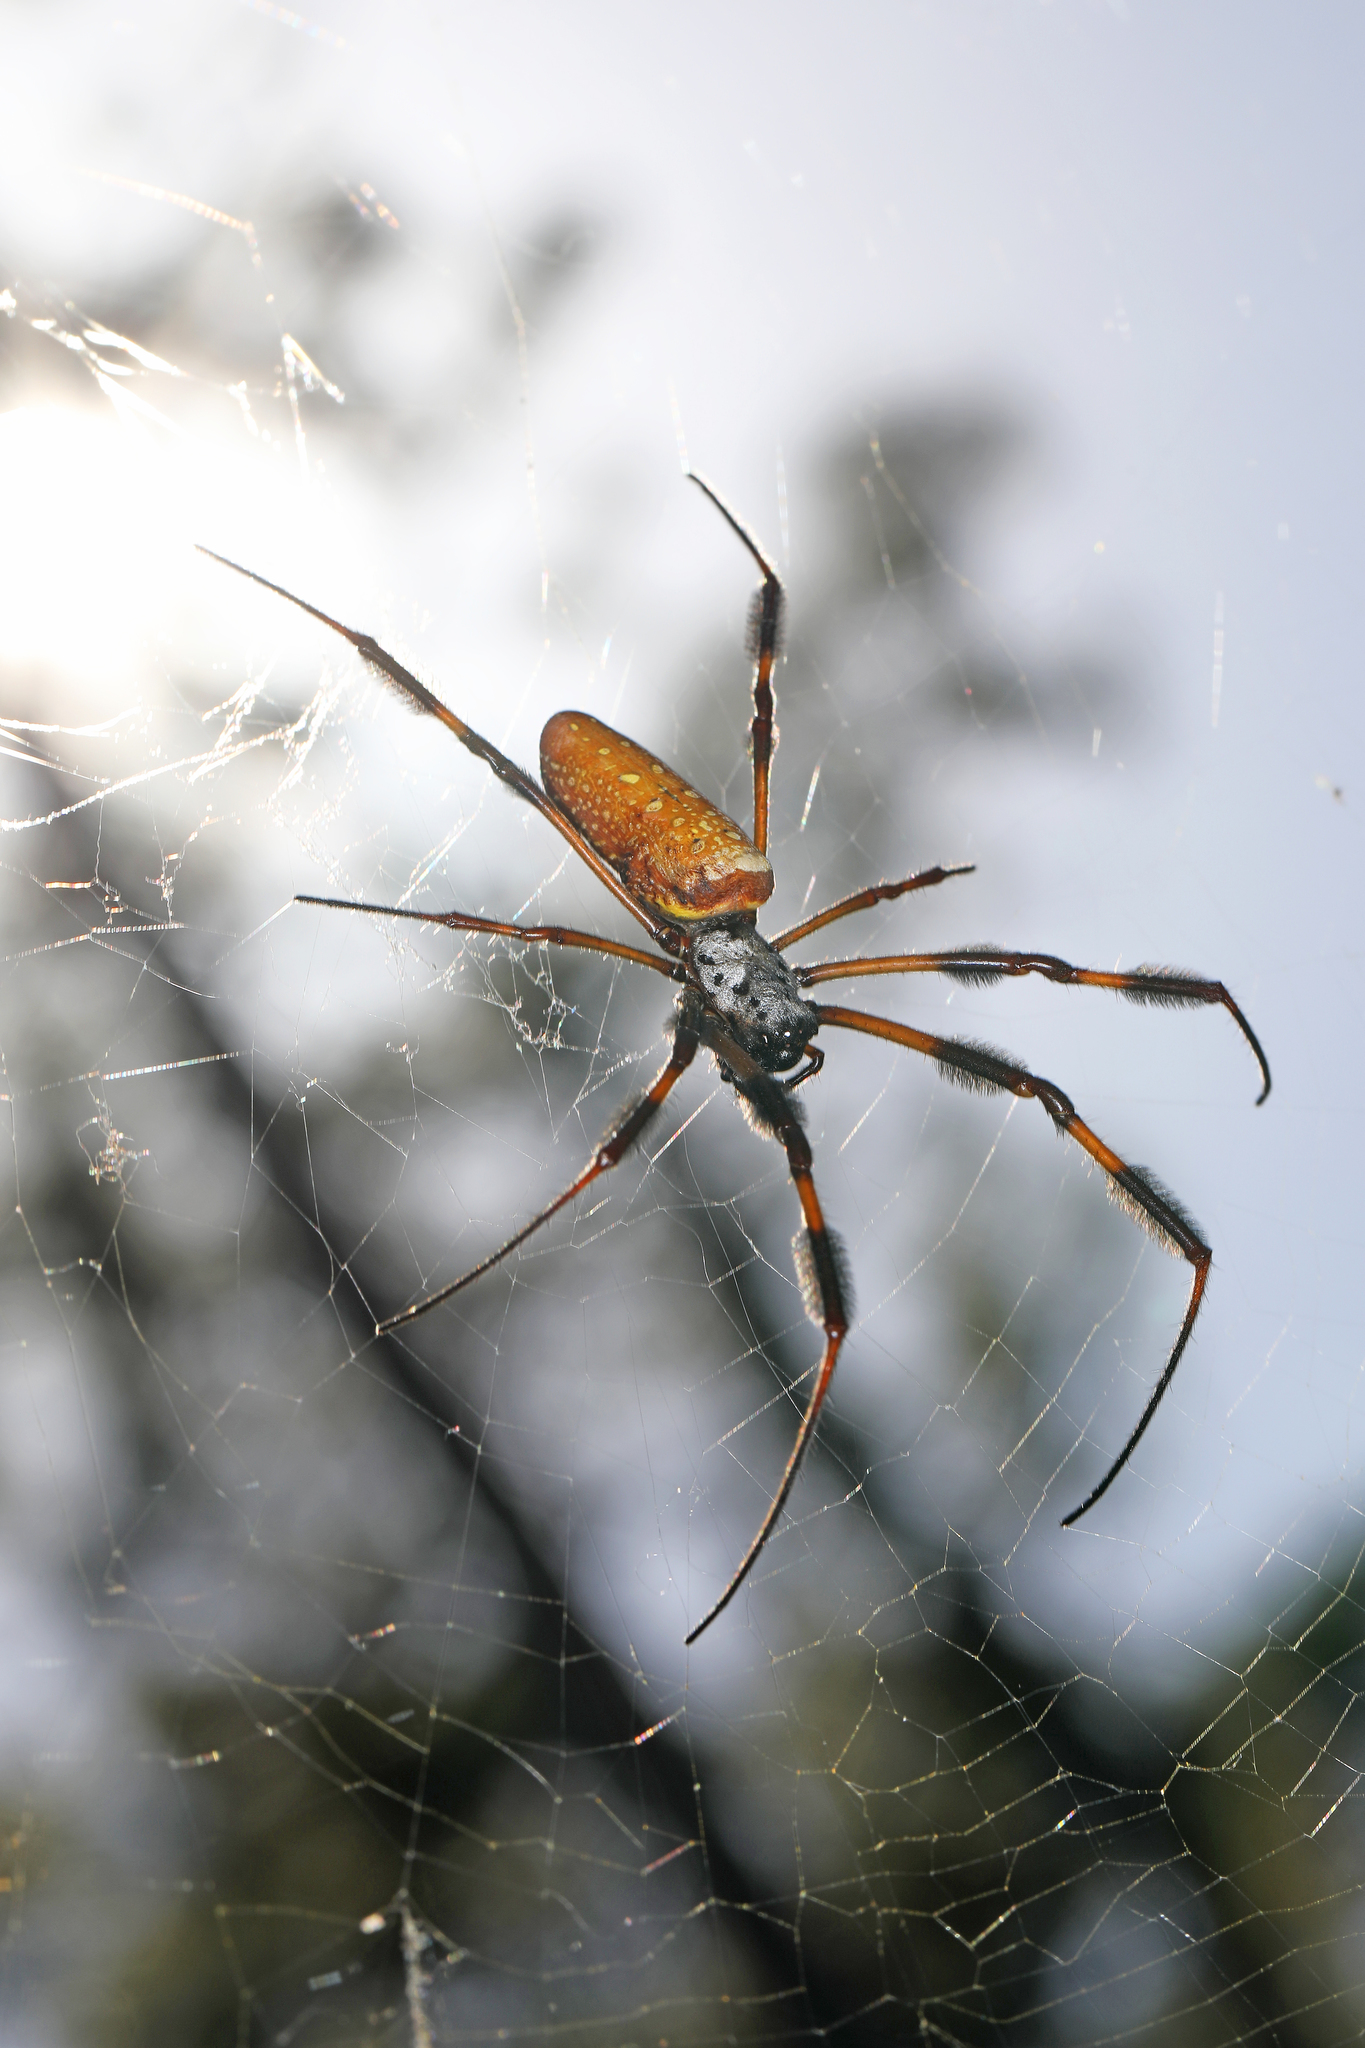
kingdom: Animalia
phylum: Arthropoda
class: Arachnida
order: Araneae
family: Araneidae
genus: Trichonephila
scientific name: Trichonephila clavipes
